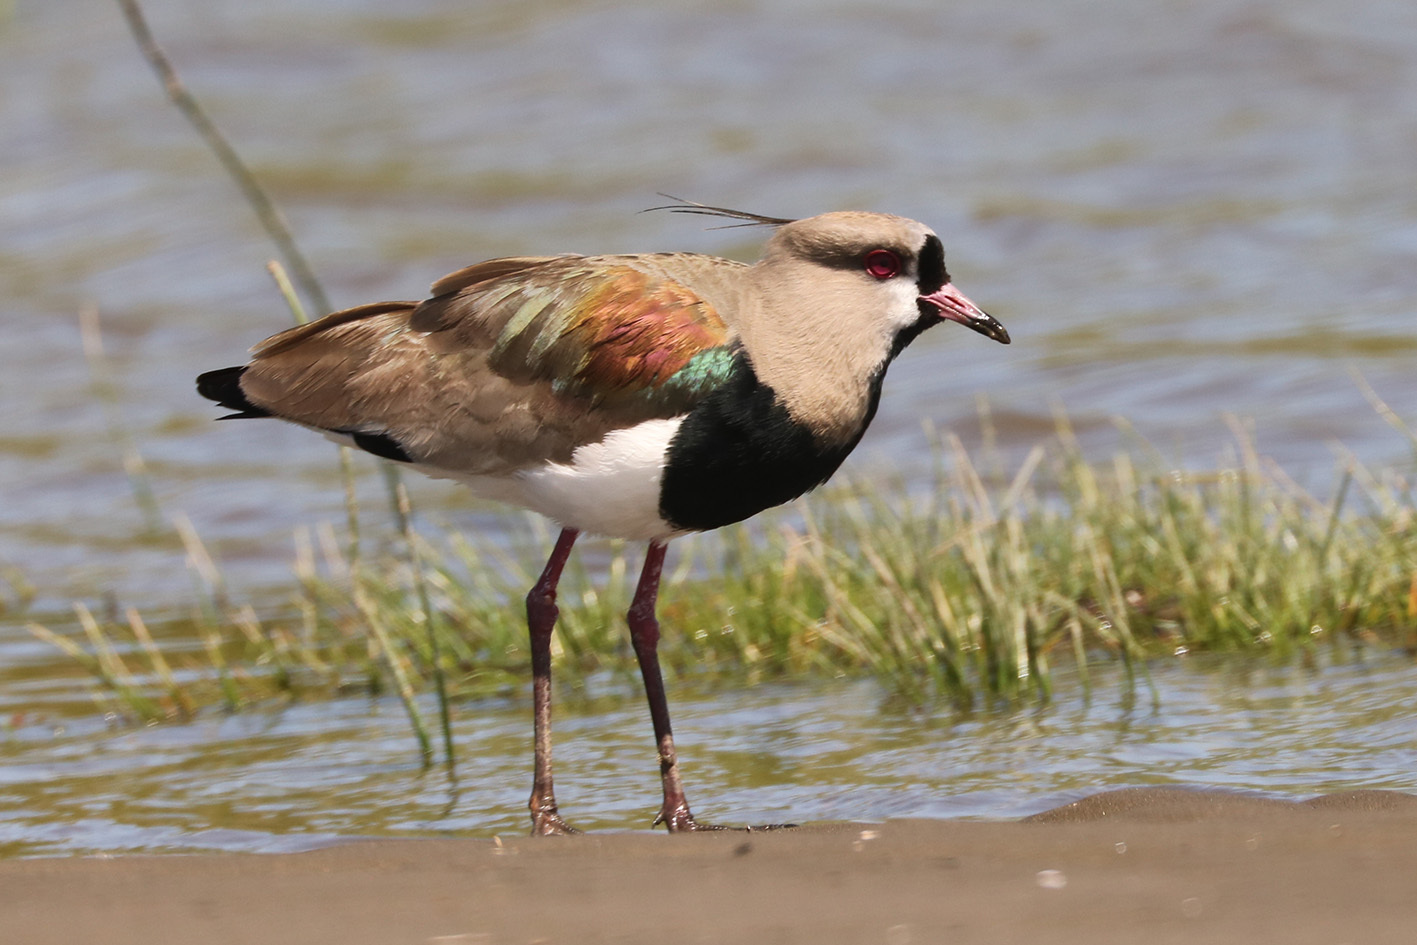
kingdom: Animalia
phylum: Chordata
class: Aves
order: Charadriiformes
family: Charadriidae
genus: Vanellus
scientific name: Vanellus chilensis
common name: Southern lapwing
